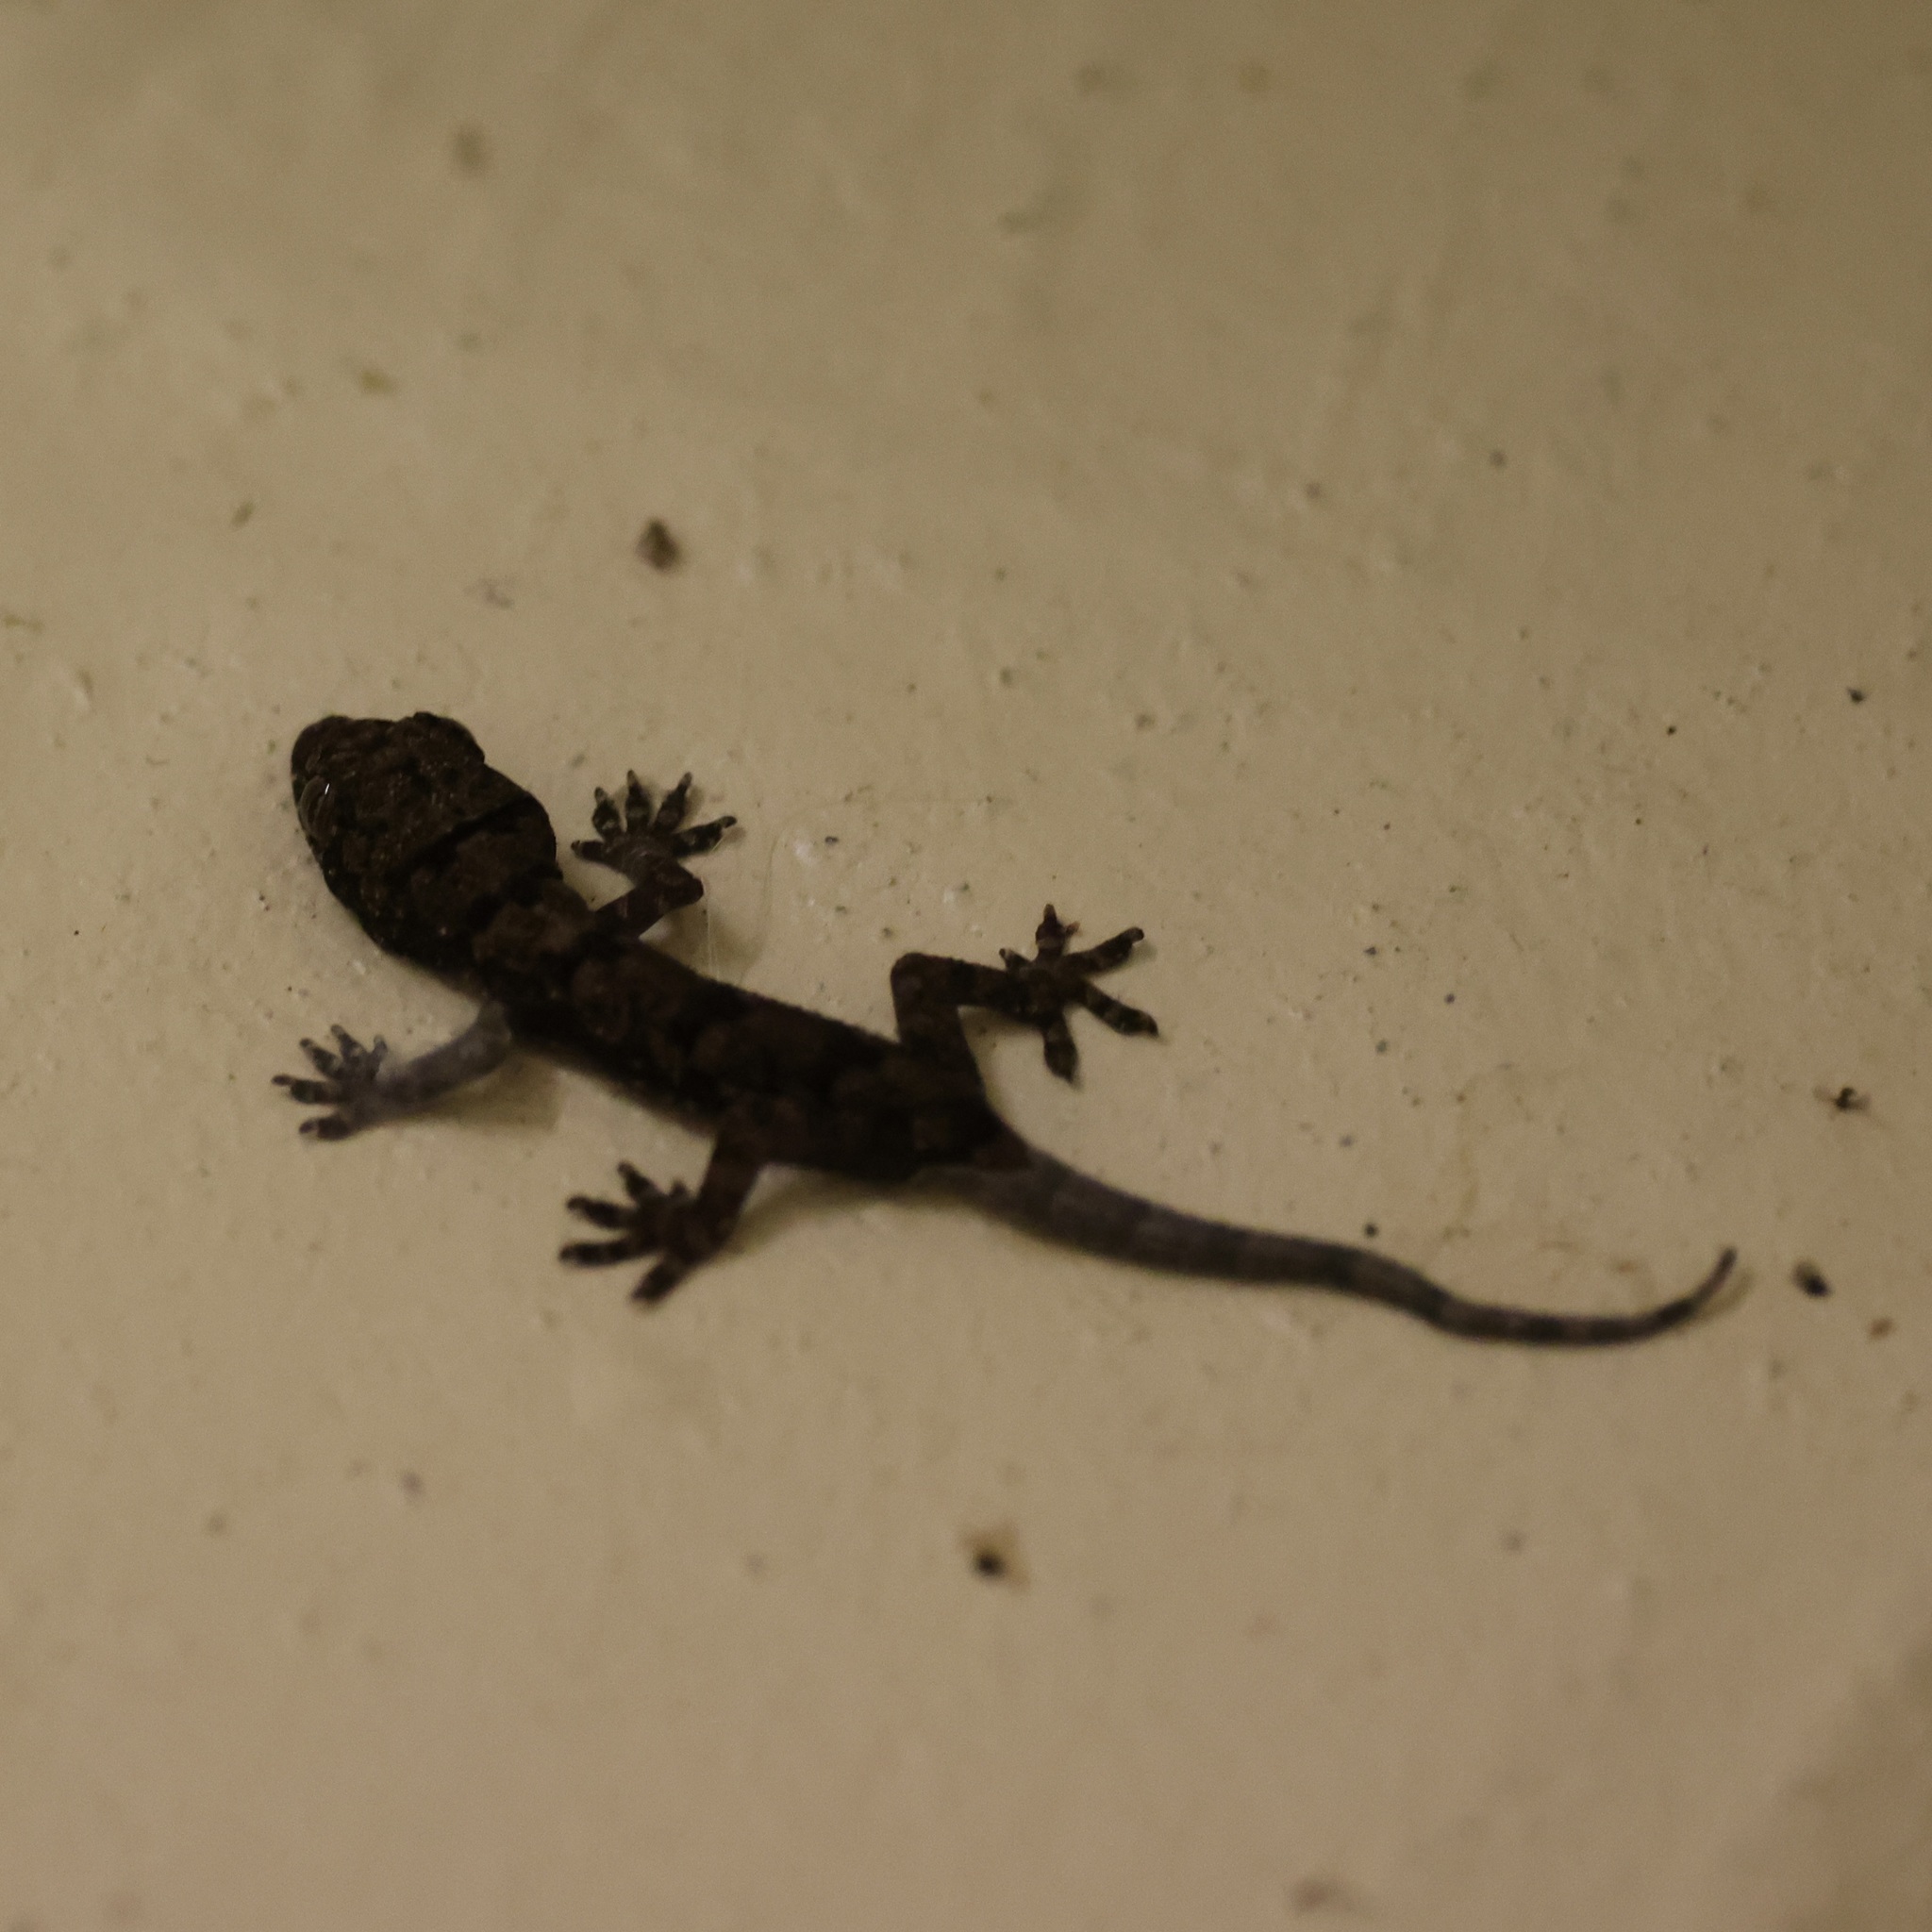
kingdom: Animalia
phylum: Chordata
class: Squamata
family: Gekkonidae
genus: Hemidactylus
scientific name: Hemidactylus mabouia
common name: House gecko
